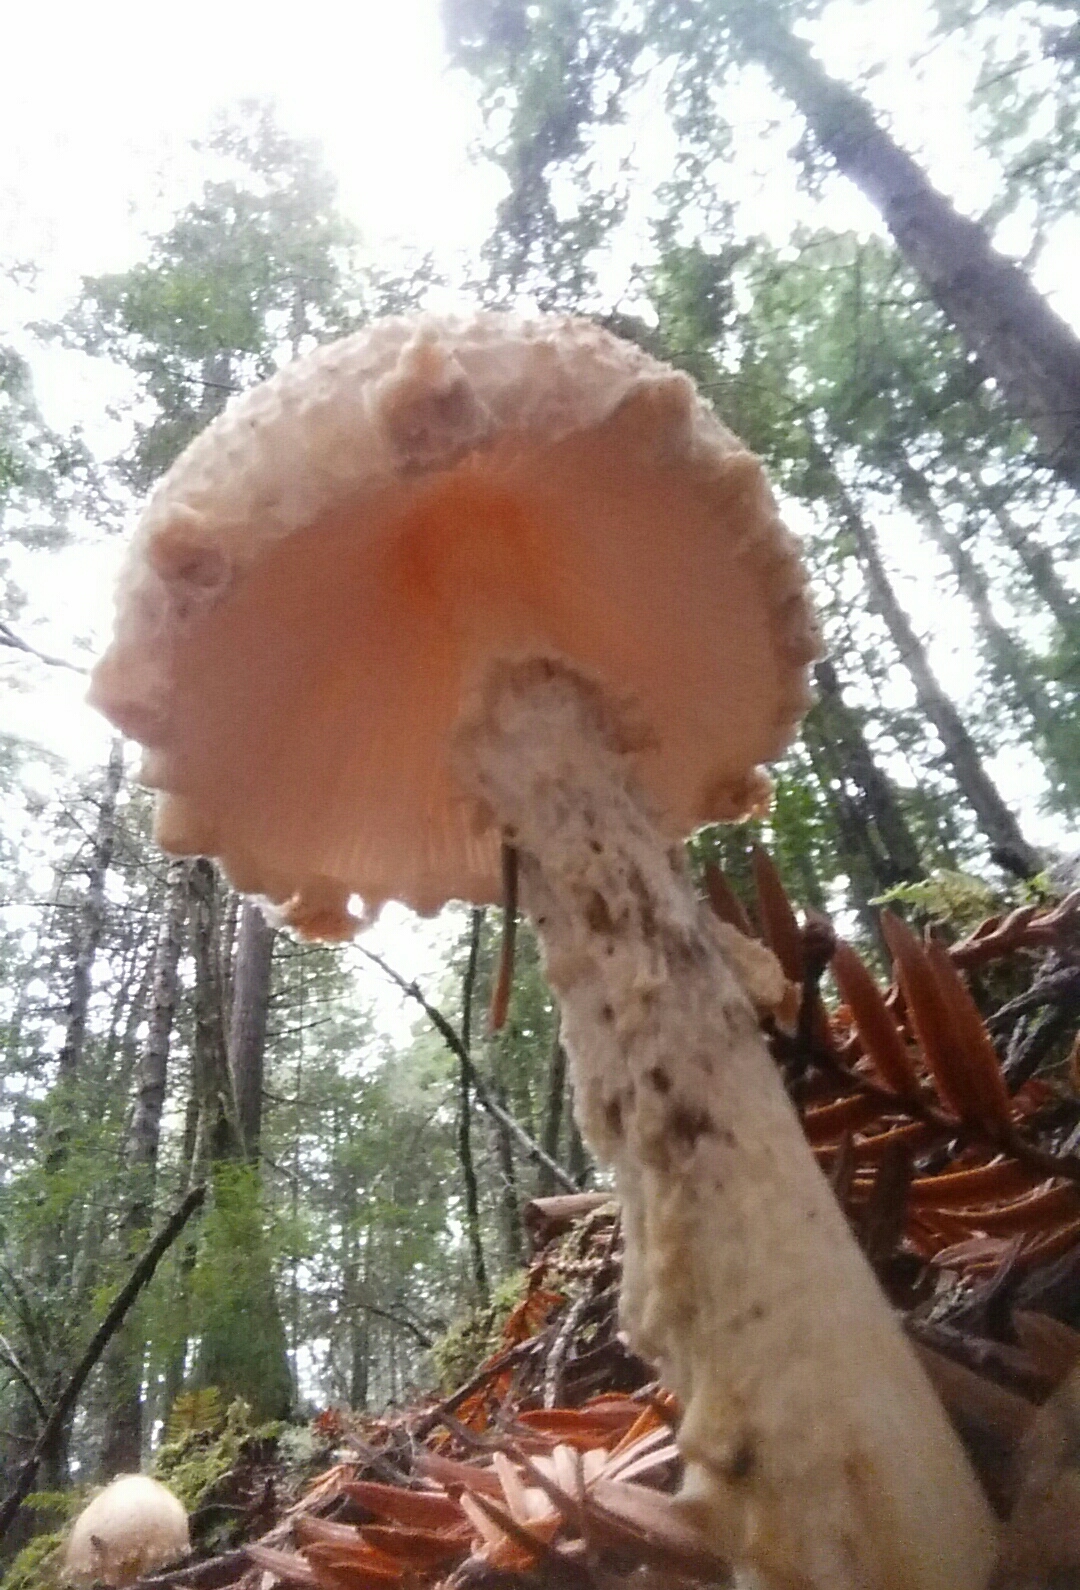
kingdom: Fungi
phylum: Basidiomycota
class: Agaricomycetes
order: Agaricales
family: Agaricaceae
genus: Lepiota
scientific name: Lepiota magnispora
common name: Yellowfoot dapperling
